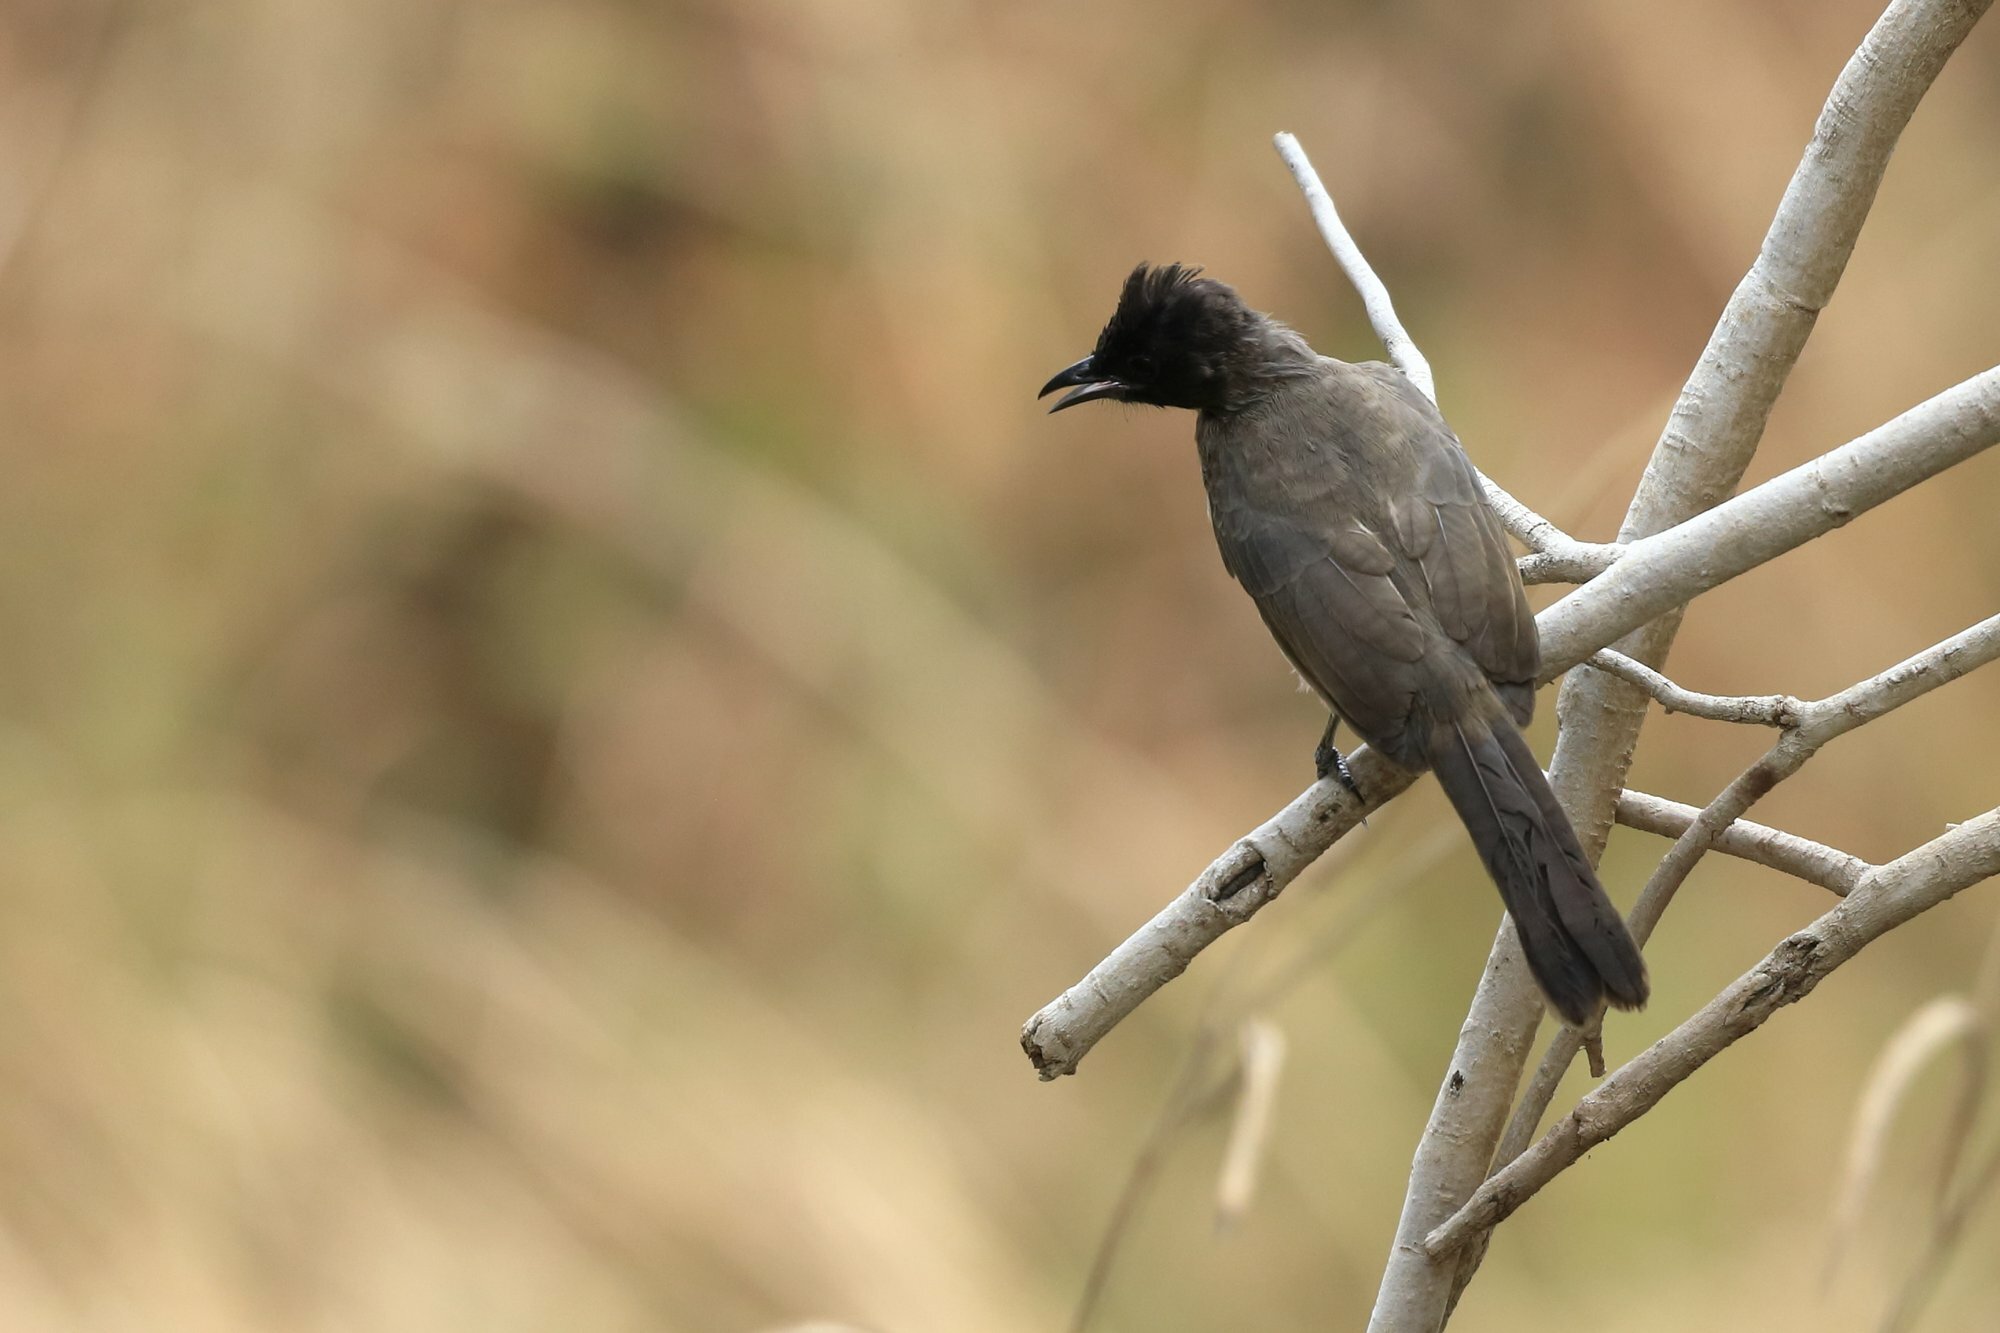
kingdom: Animalia
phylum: Chordata
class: Aves
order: Passeriformes
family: Pycnonotidae
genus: Pycnonotus
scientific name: Pycnonotus barbatus
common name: Common bulbul
